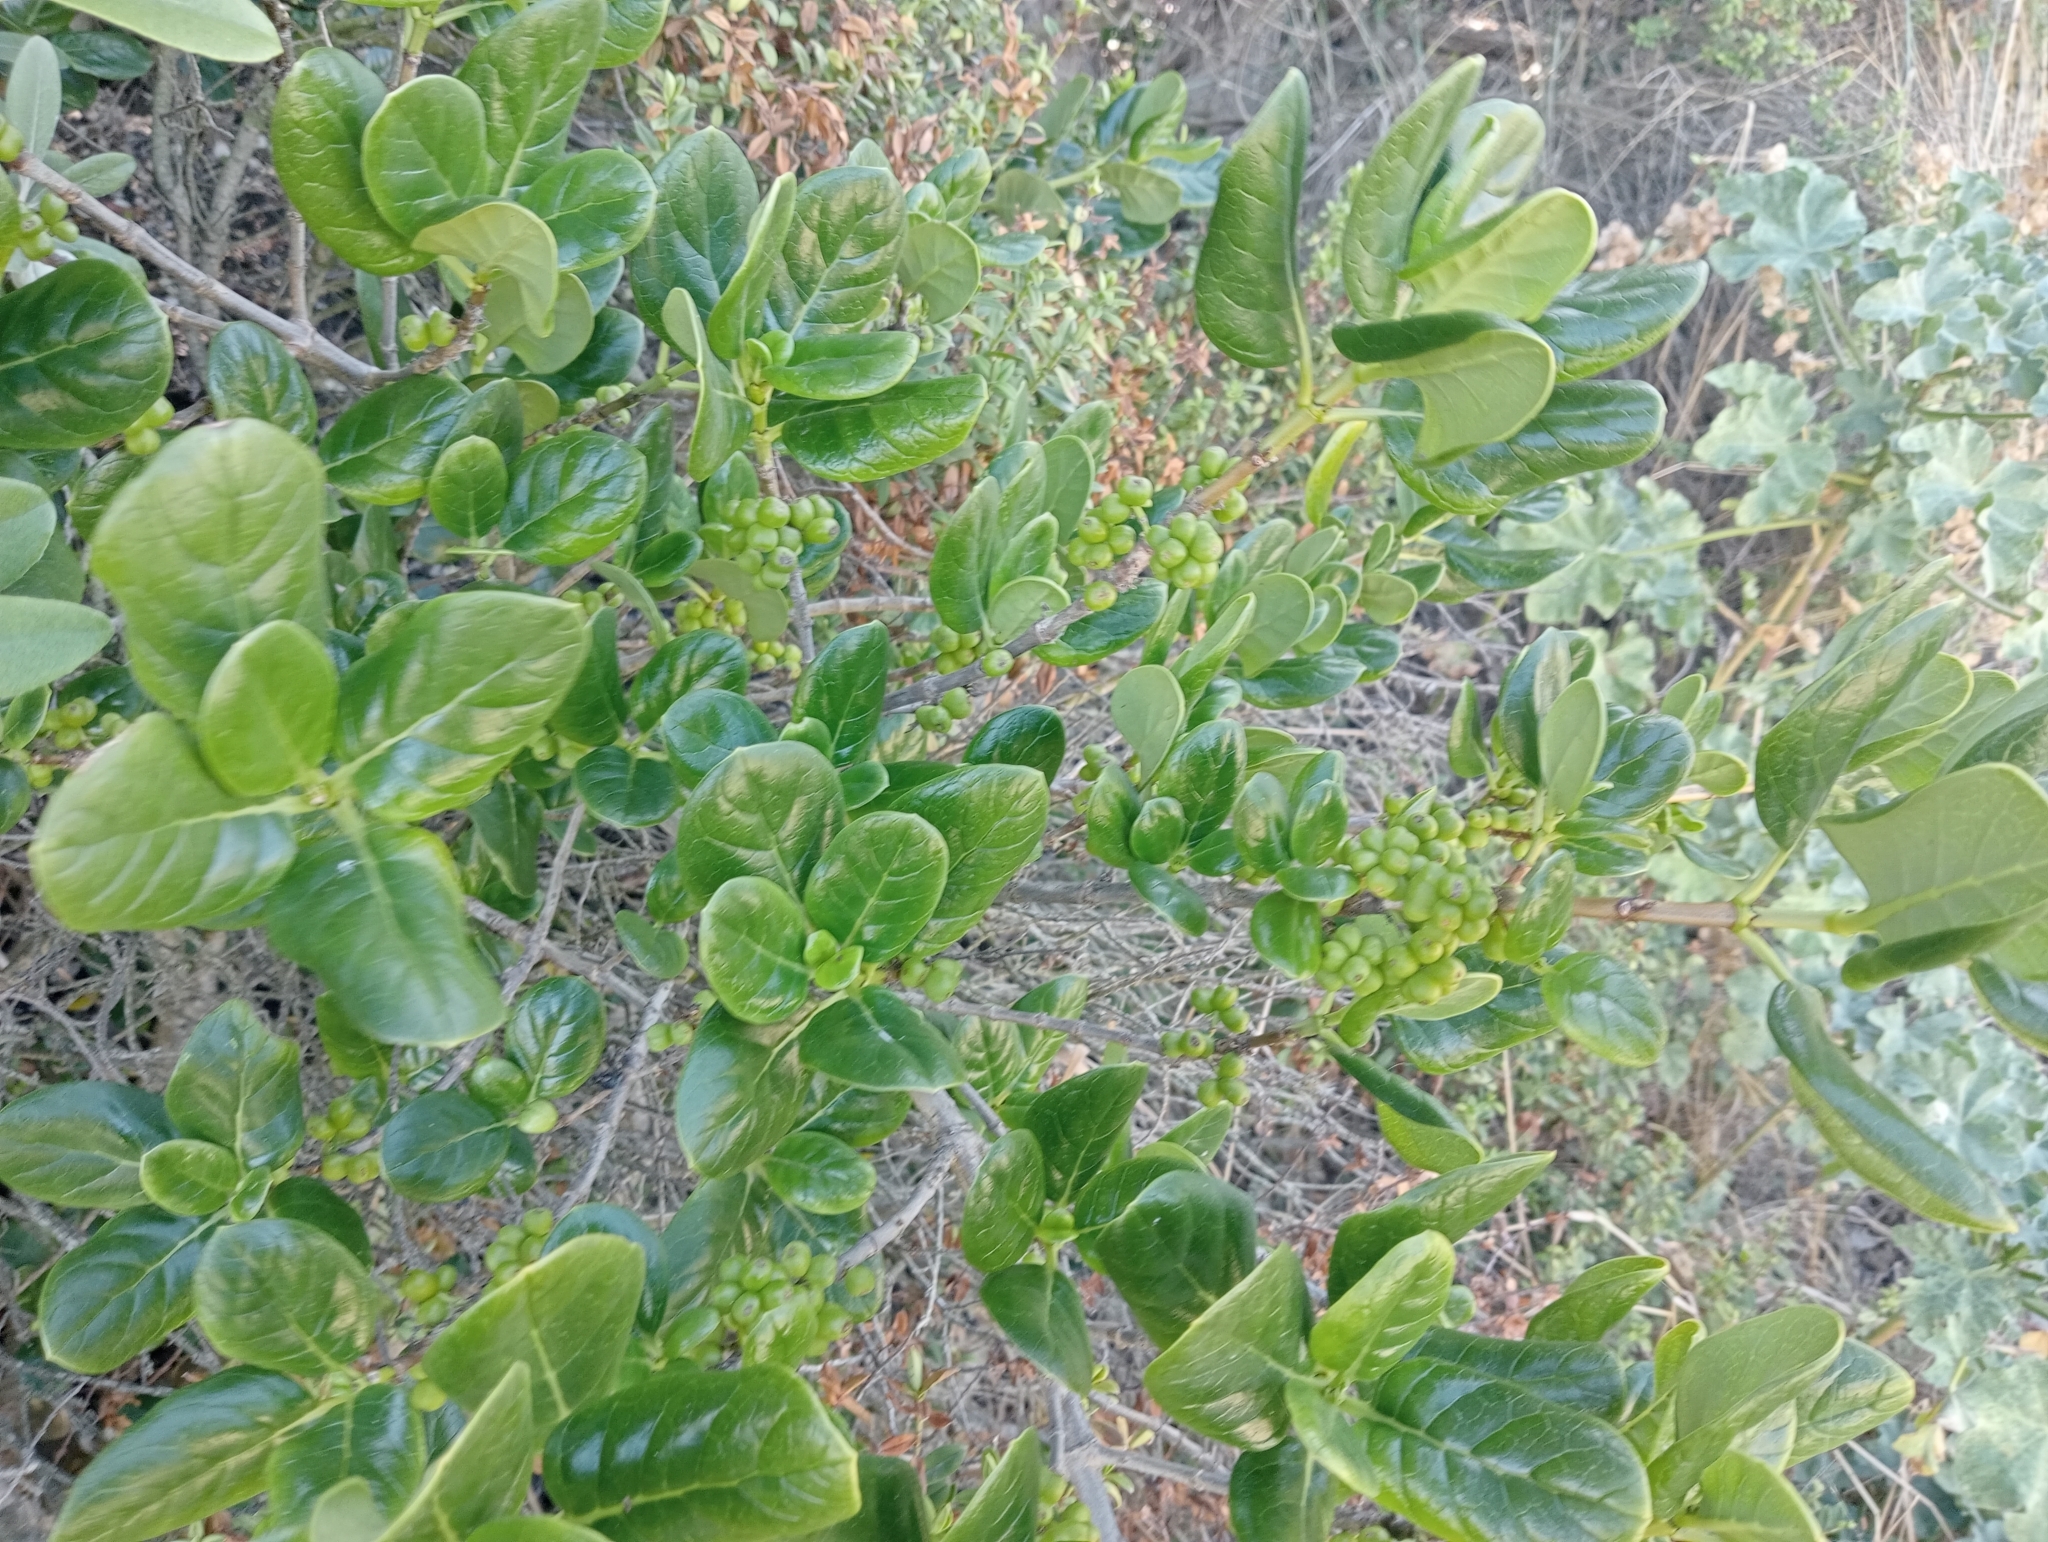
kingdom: Plantae
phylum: Tracheophyta
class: Magnoliopsida
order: Gentianales
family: Rubiaceae
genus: Coprosma
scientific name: Coprosma repens
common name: Tree bedstraw
